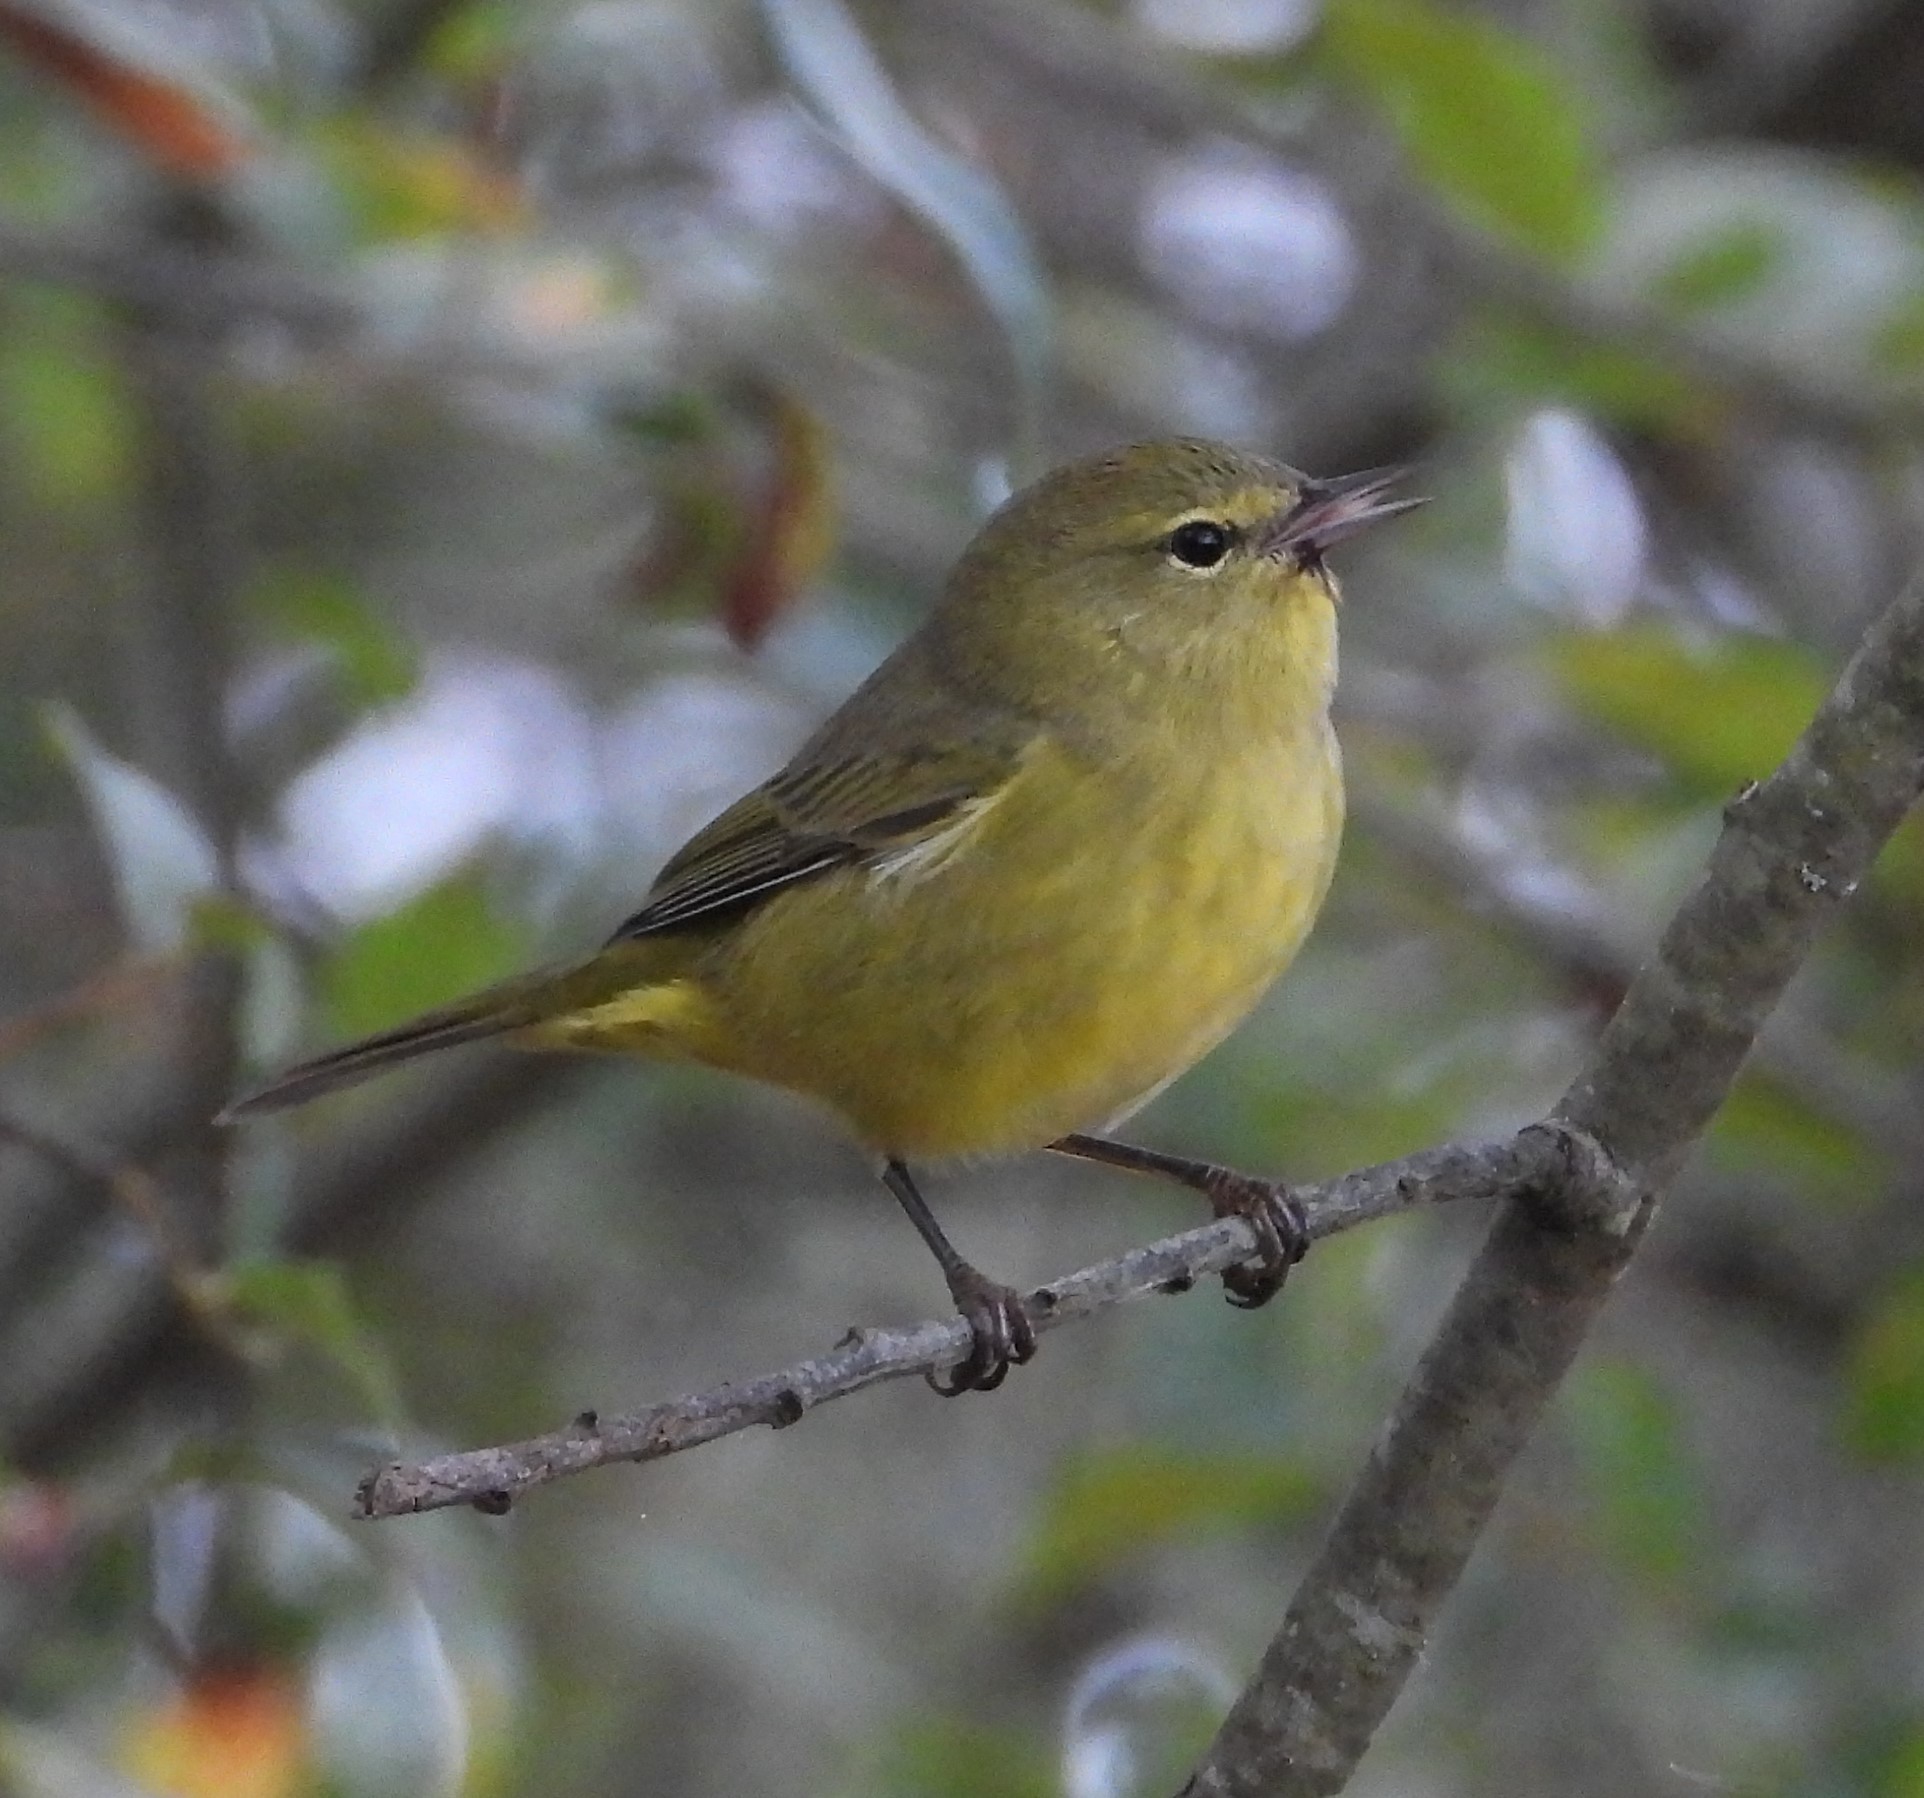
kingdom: Animalia
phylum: Chordata
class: Aves
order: Passeriformes
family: Parulidae
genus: Leiothlypis
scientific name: Leiothlypis celata
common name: Orange-crowned warbler
